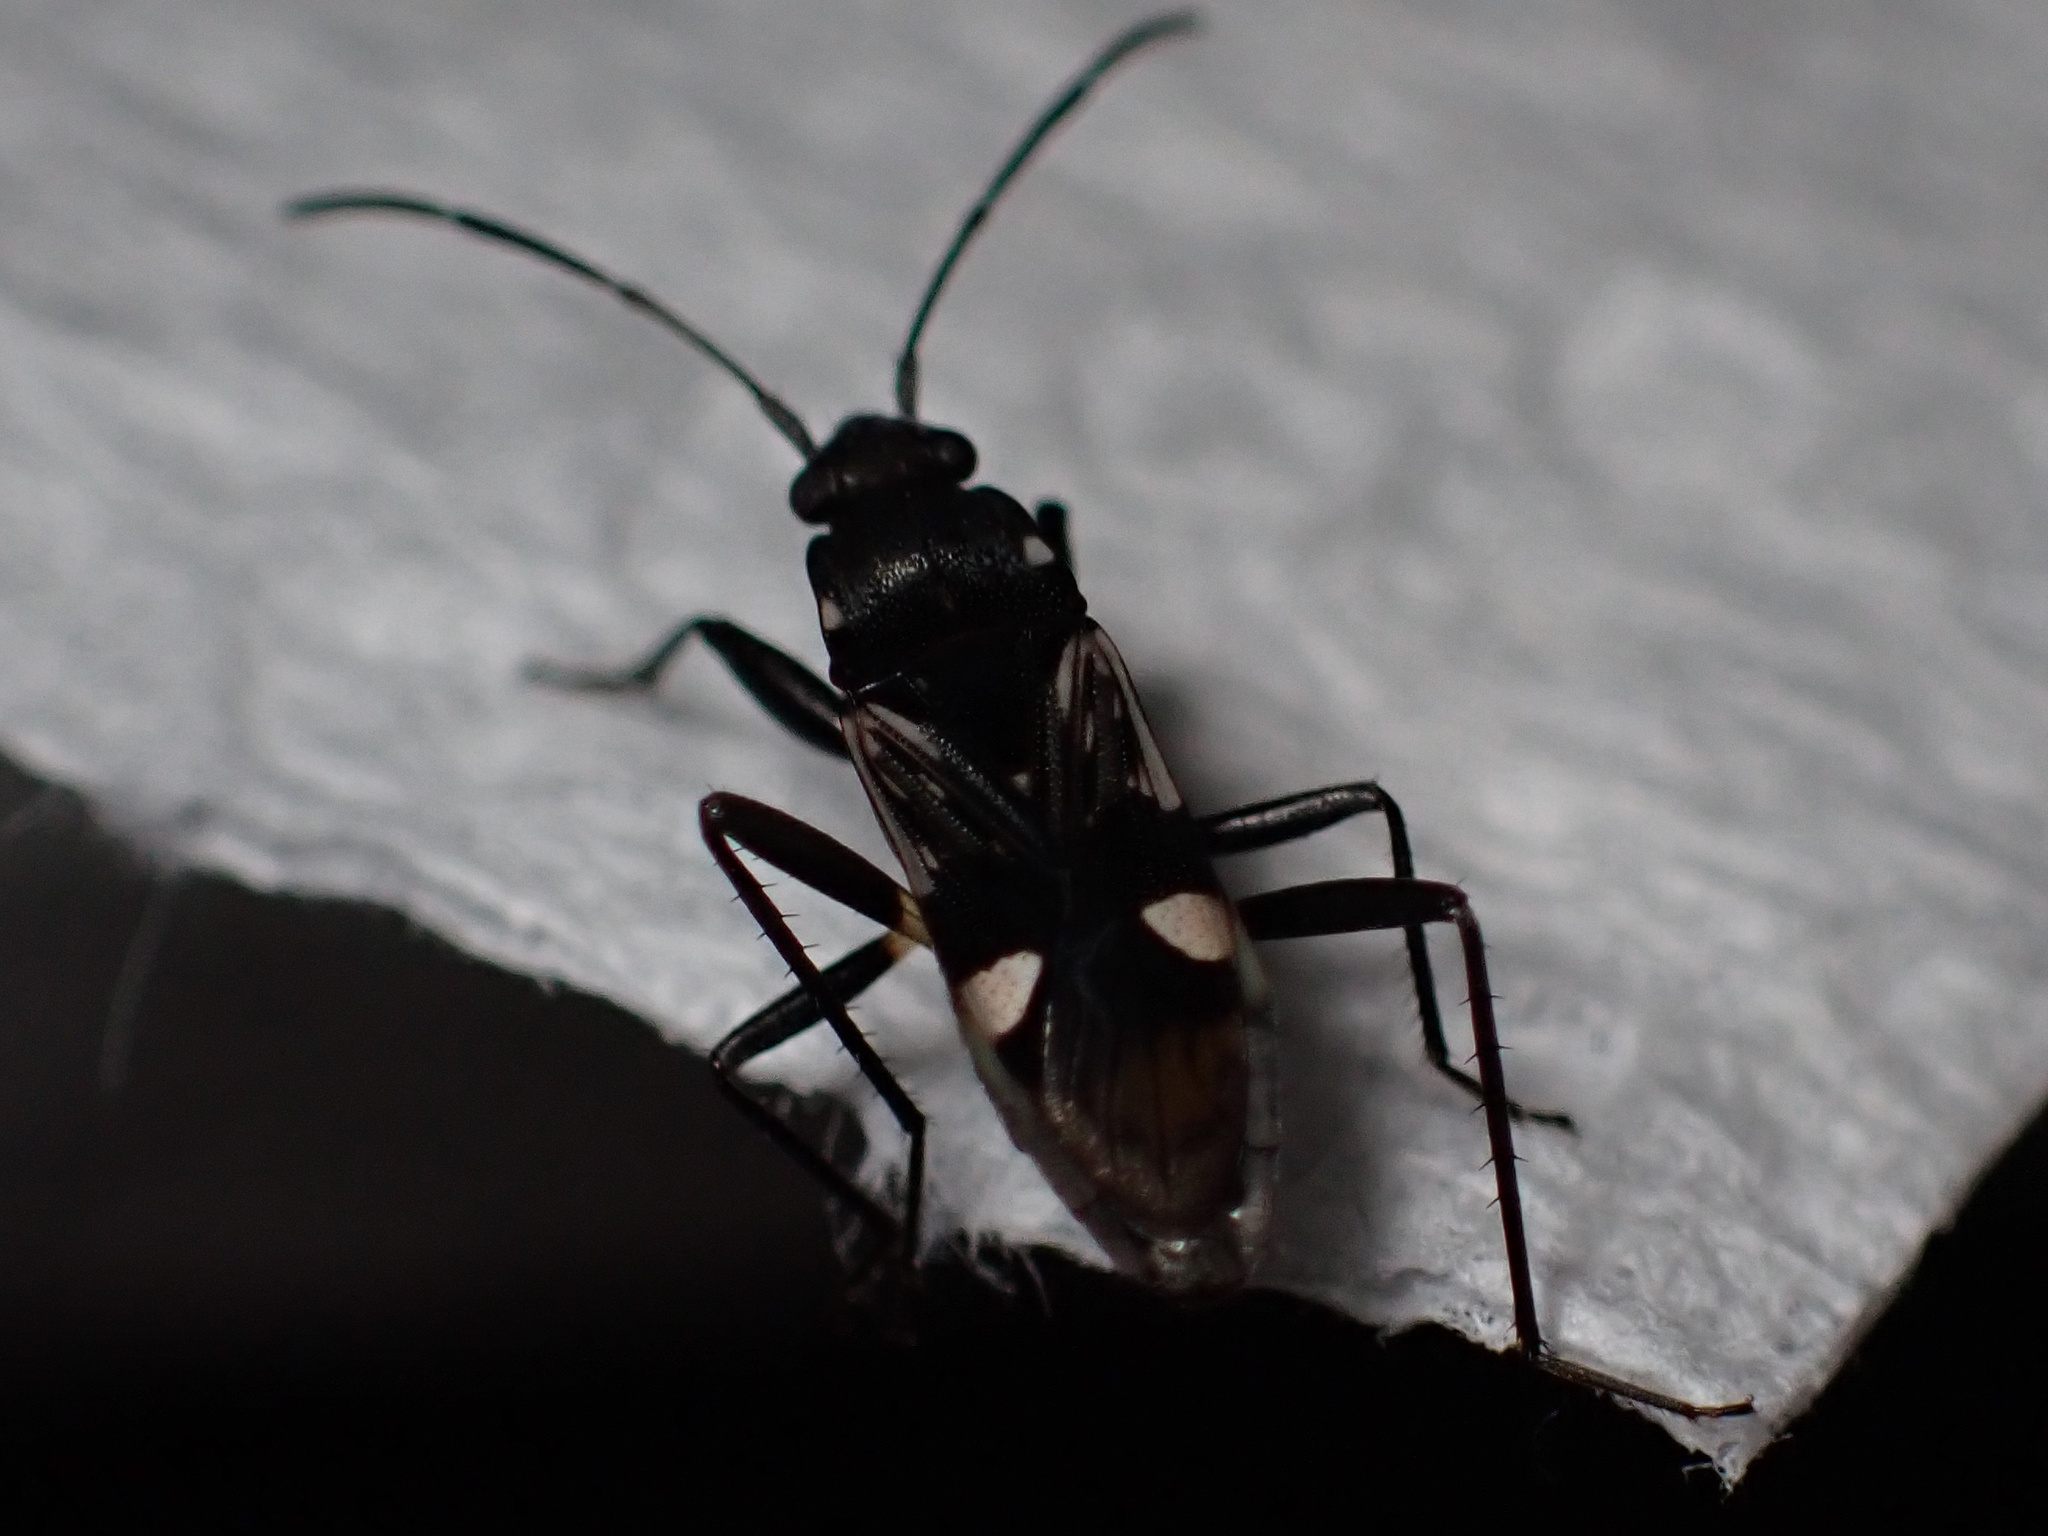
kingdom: Animalia
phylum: Arthropoda
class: Insecta
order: Hemiptera
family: Rhyparochromidae
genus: Dieuches
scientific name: Dieuches maculicollis
